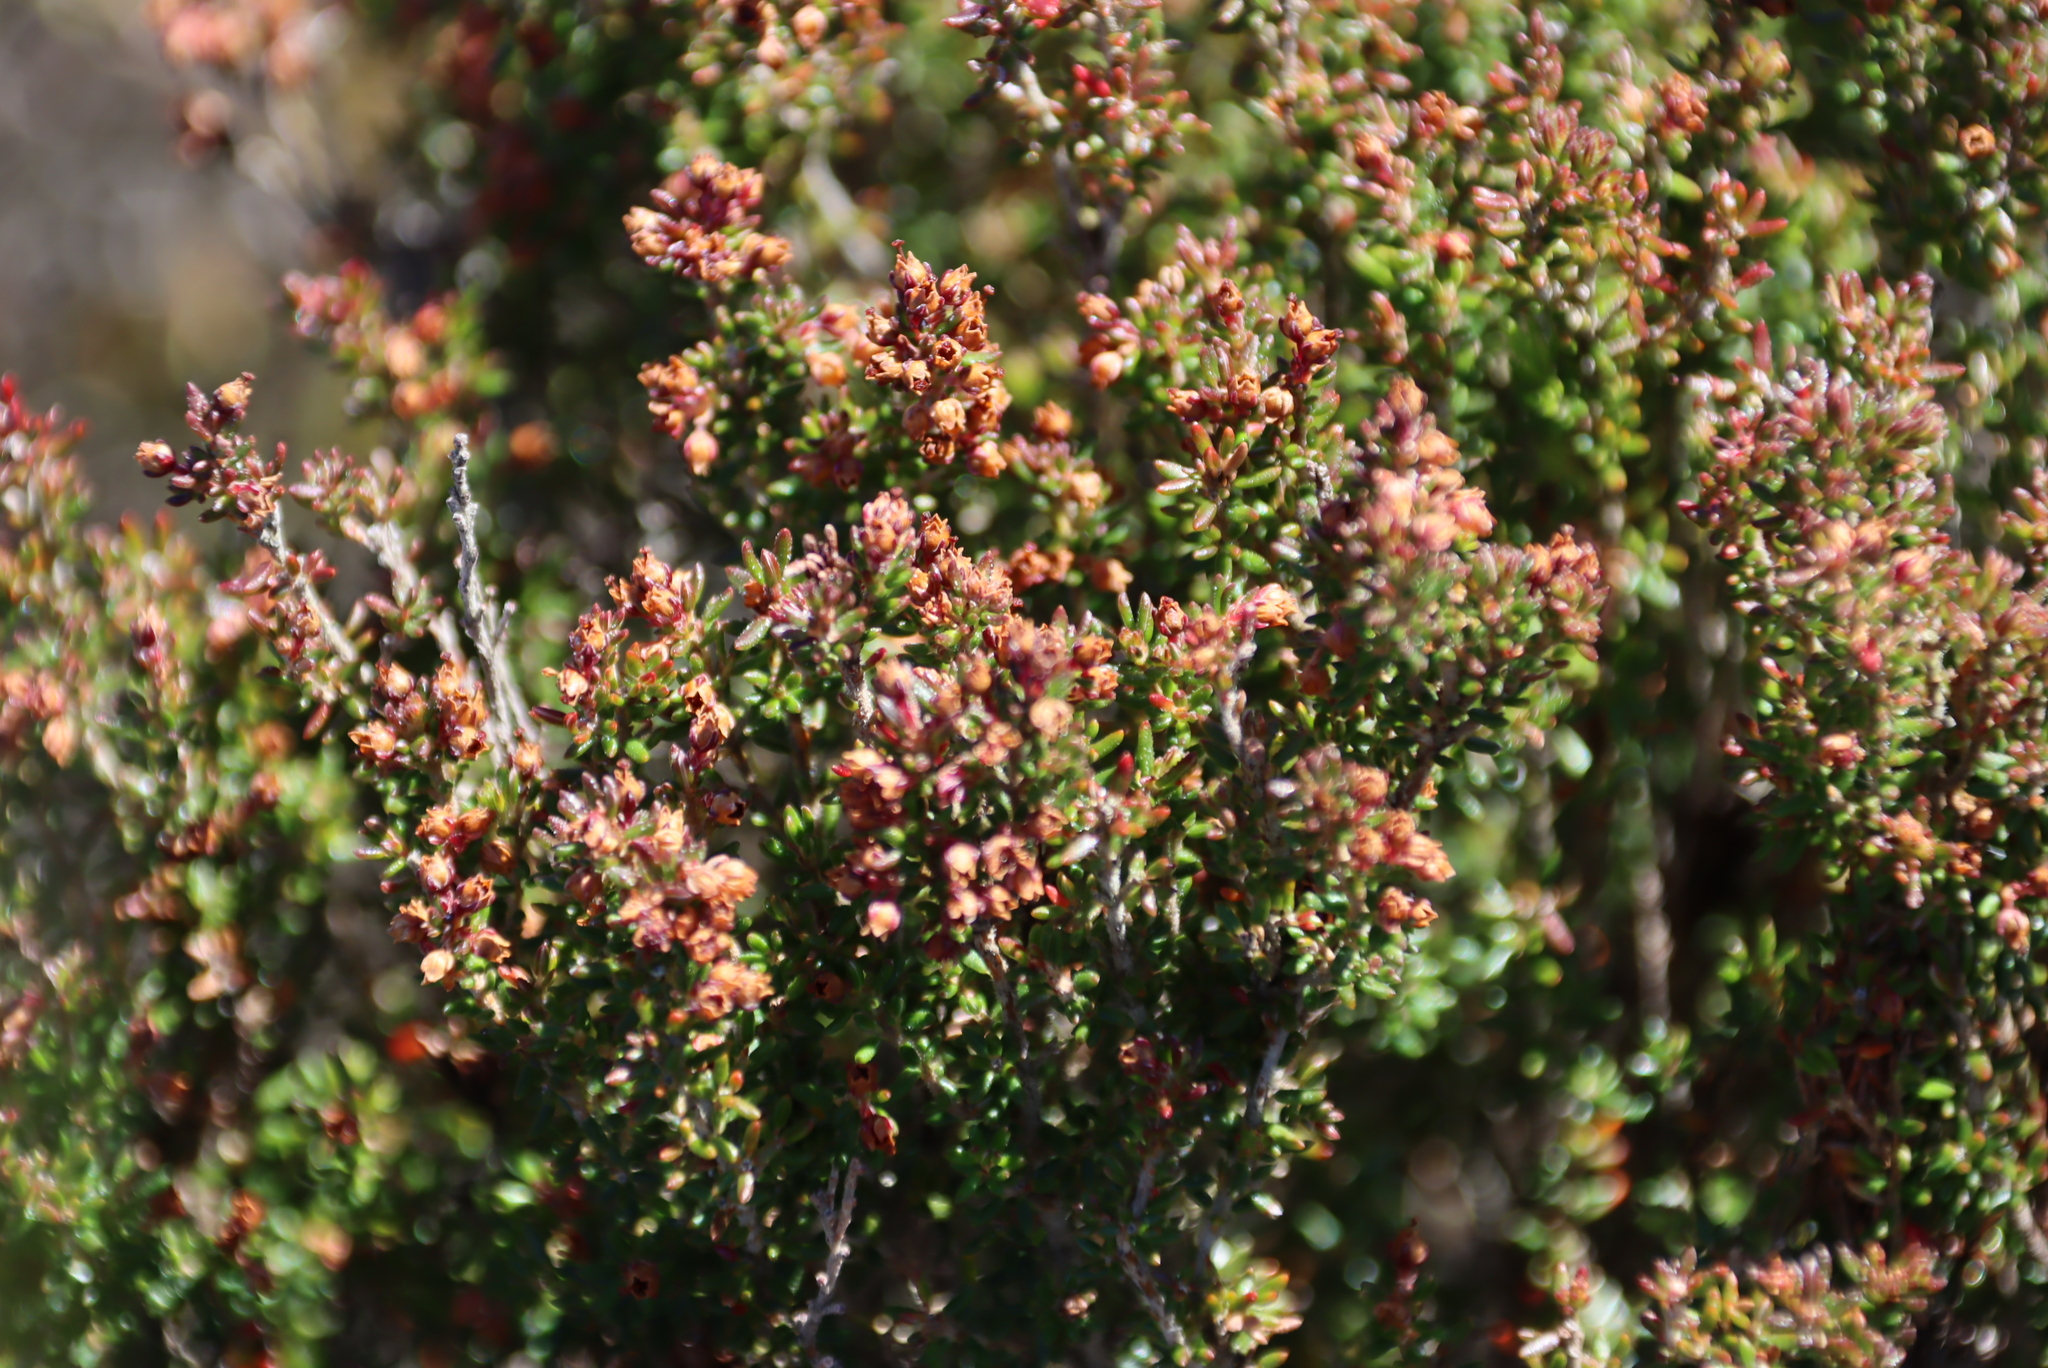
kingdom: Plantae
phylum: Tracheophyta
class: Magnoliopsida
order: Ericales
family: Ericaceae
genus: Erica
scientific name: Erica hispidula
